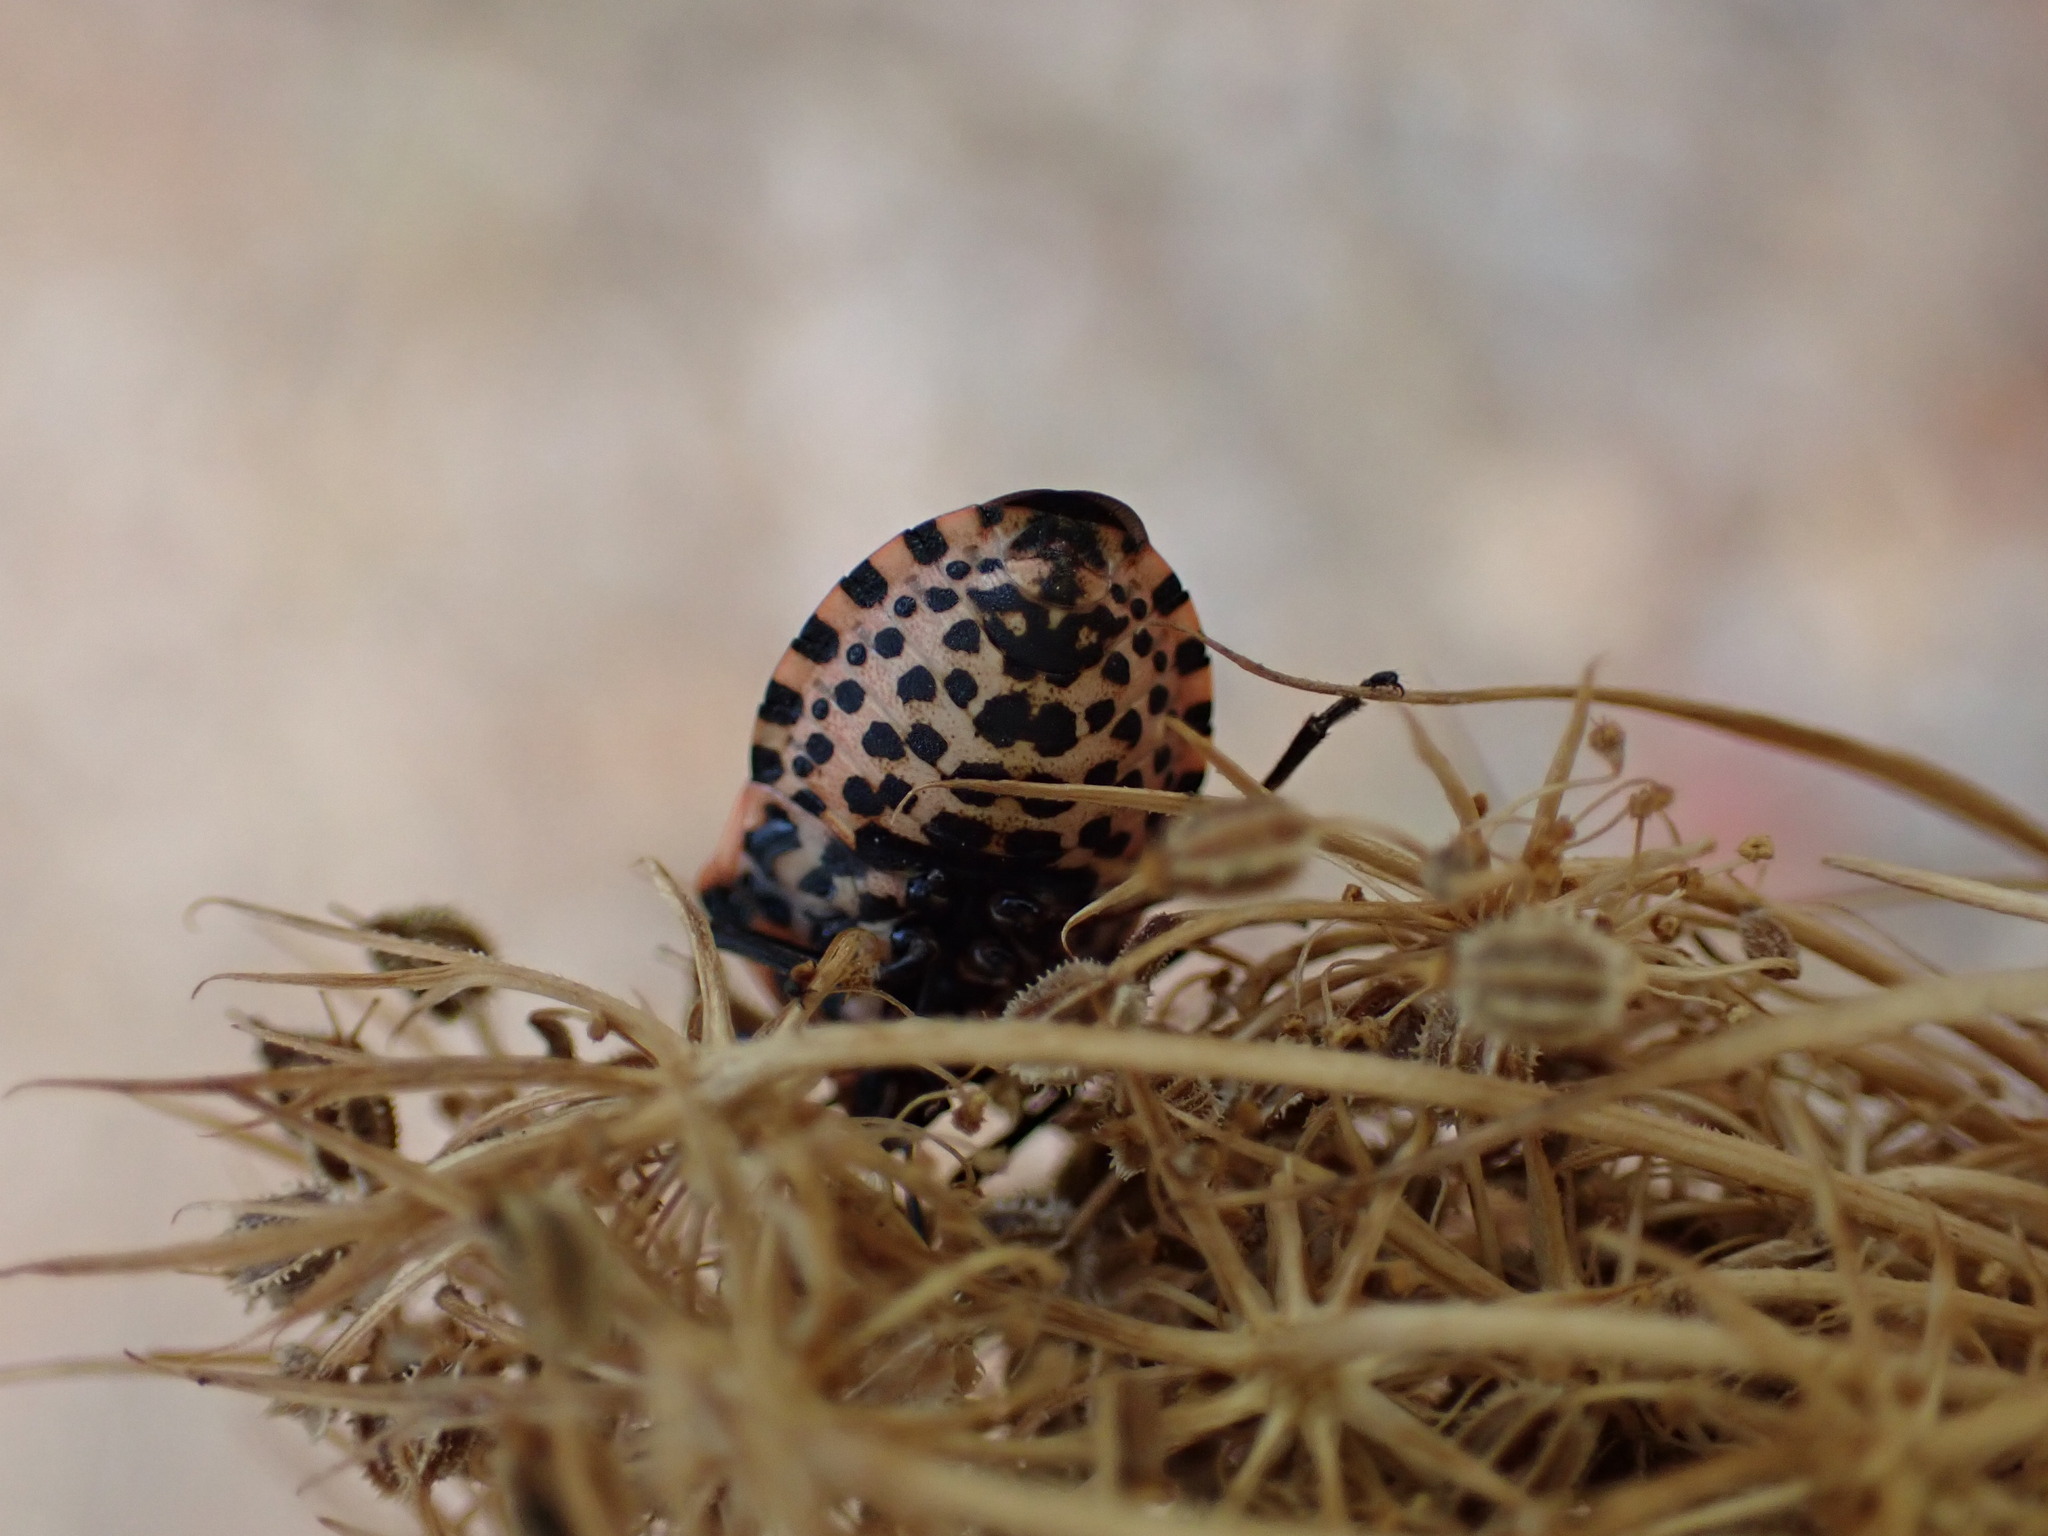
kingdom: Animalia
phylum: Arthropoda
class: Insecta
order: Hemiptera
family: Pentatomidae
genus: Graphosoma
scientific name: Graphosoma italicum
